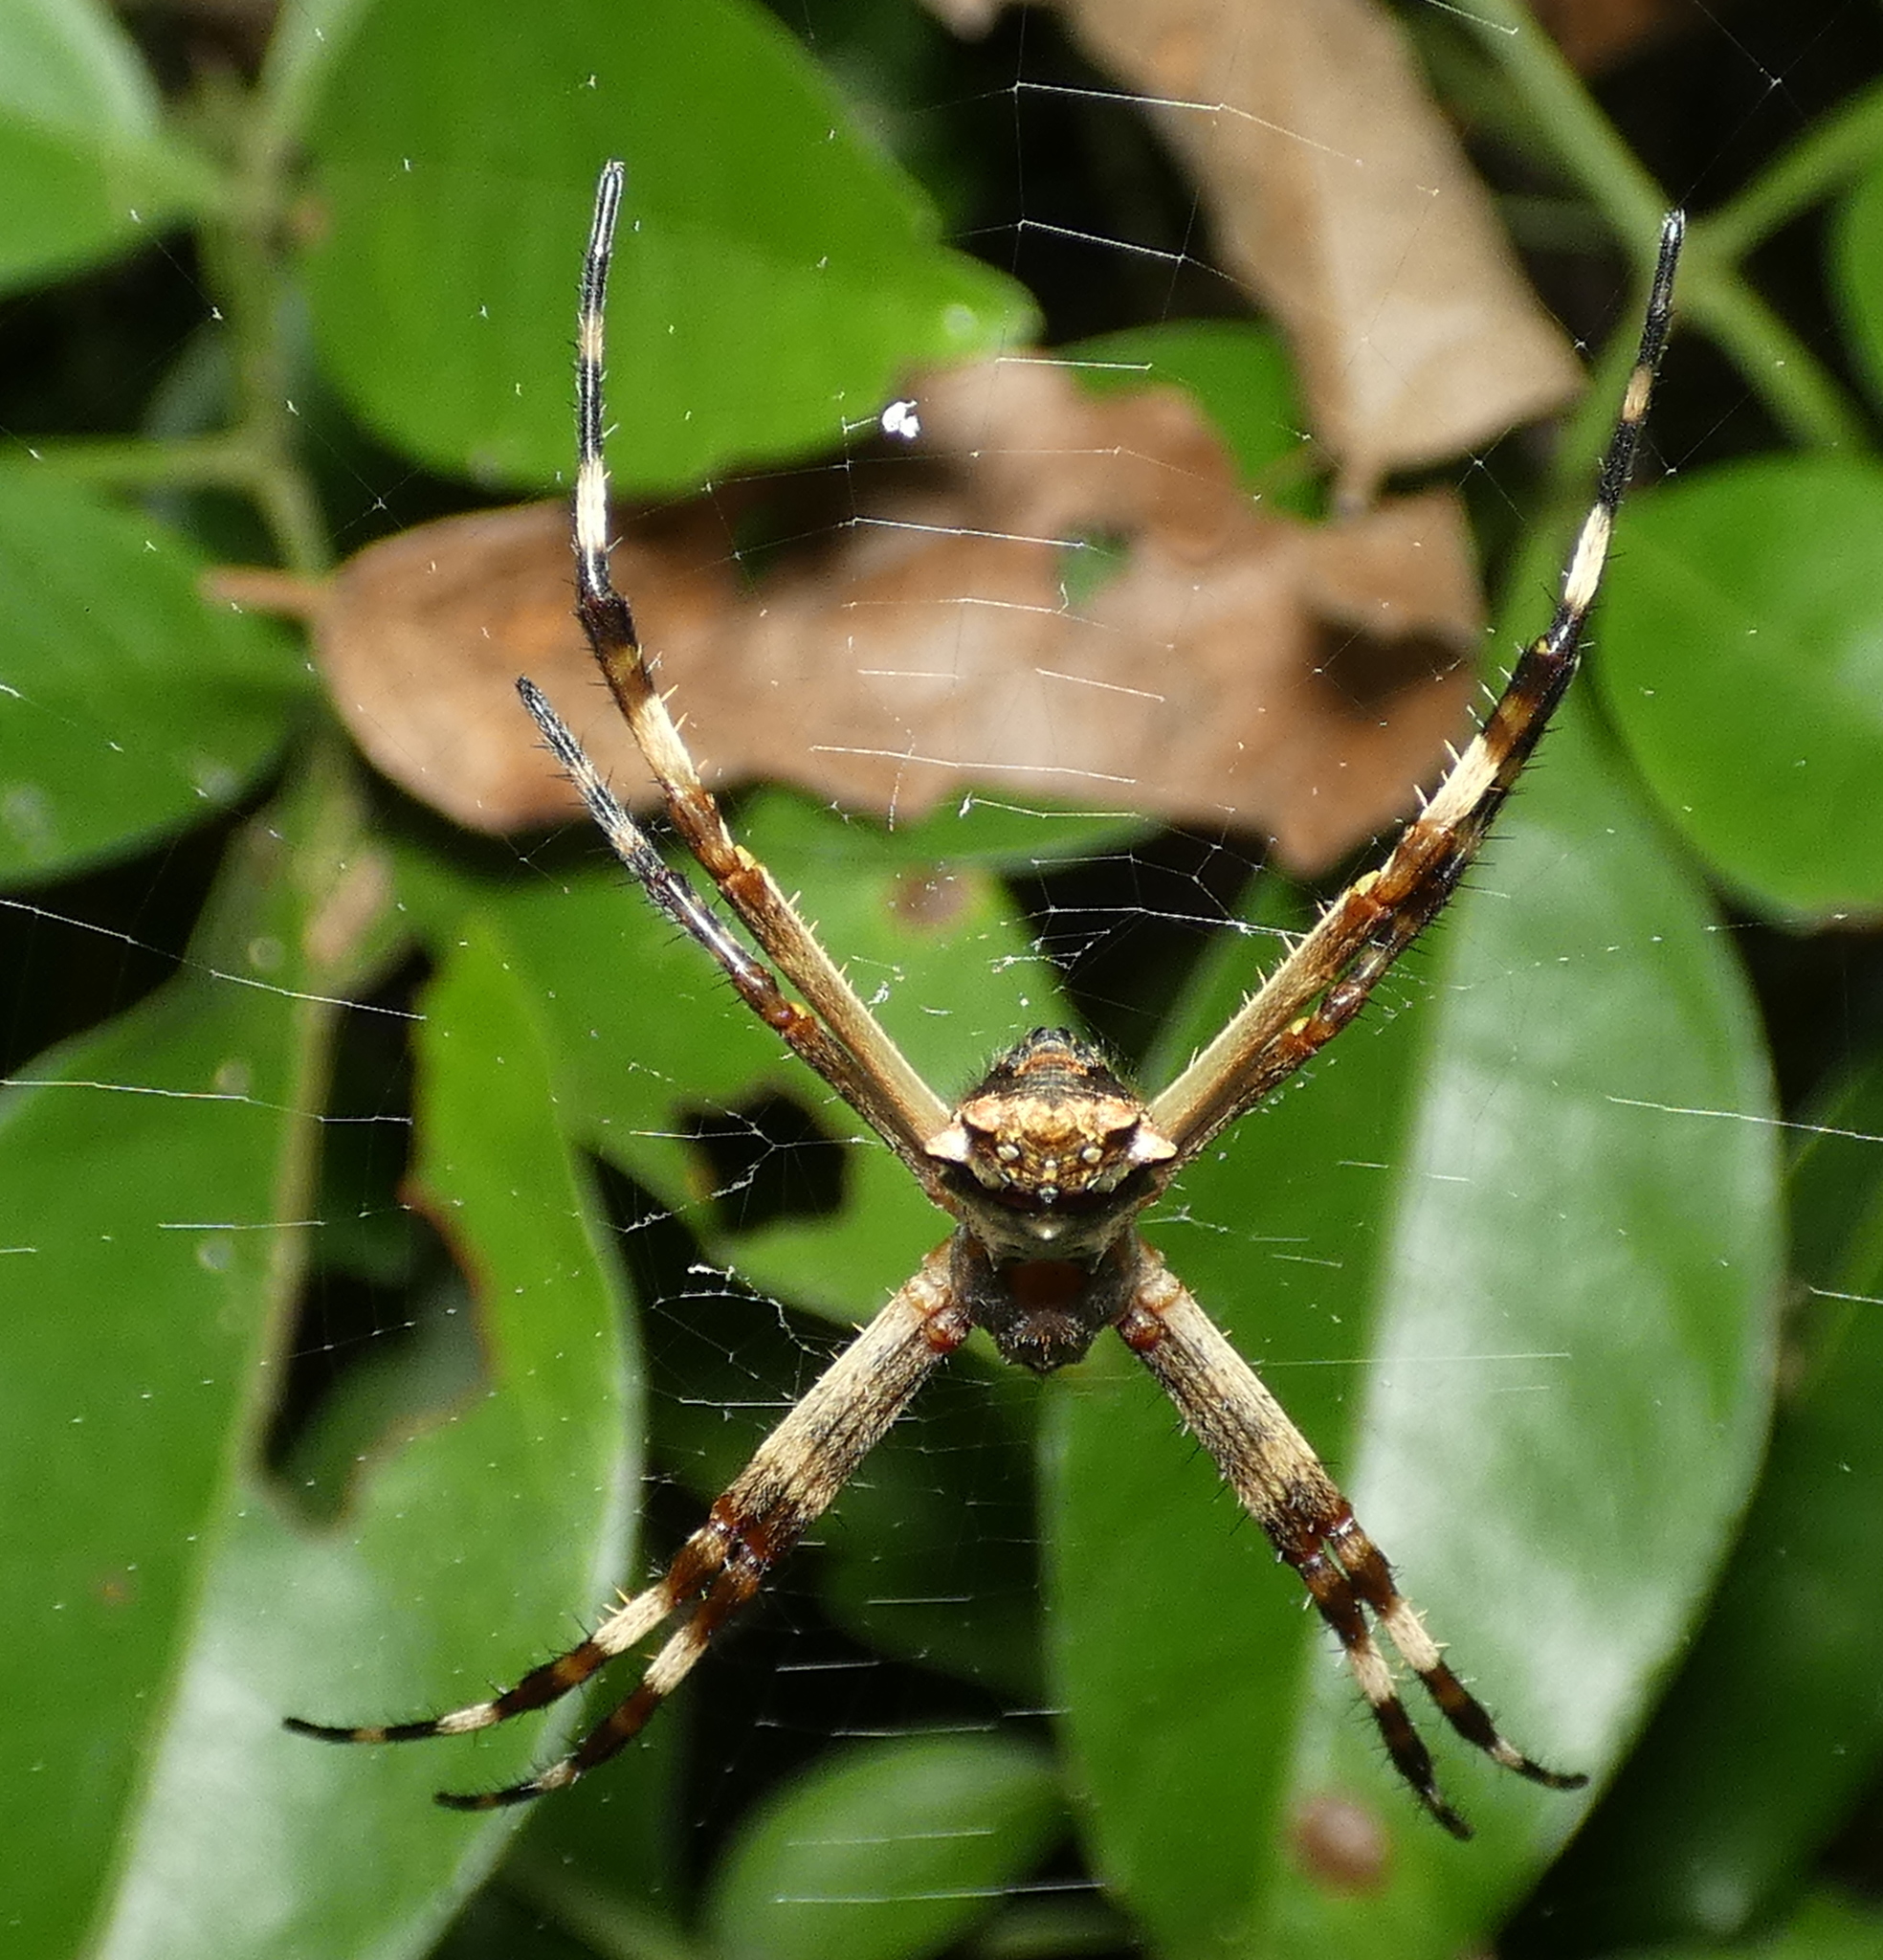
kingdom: Animalia
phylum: Arthropoda
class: Arachnida
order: Araneae
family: Araneidae
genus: Argiope
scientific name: Argiope argentata
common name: Orb weavers
